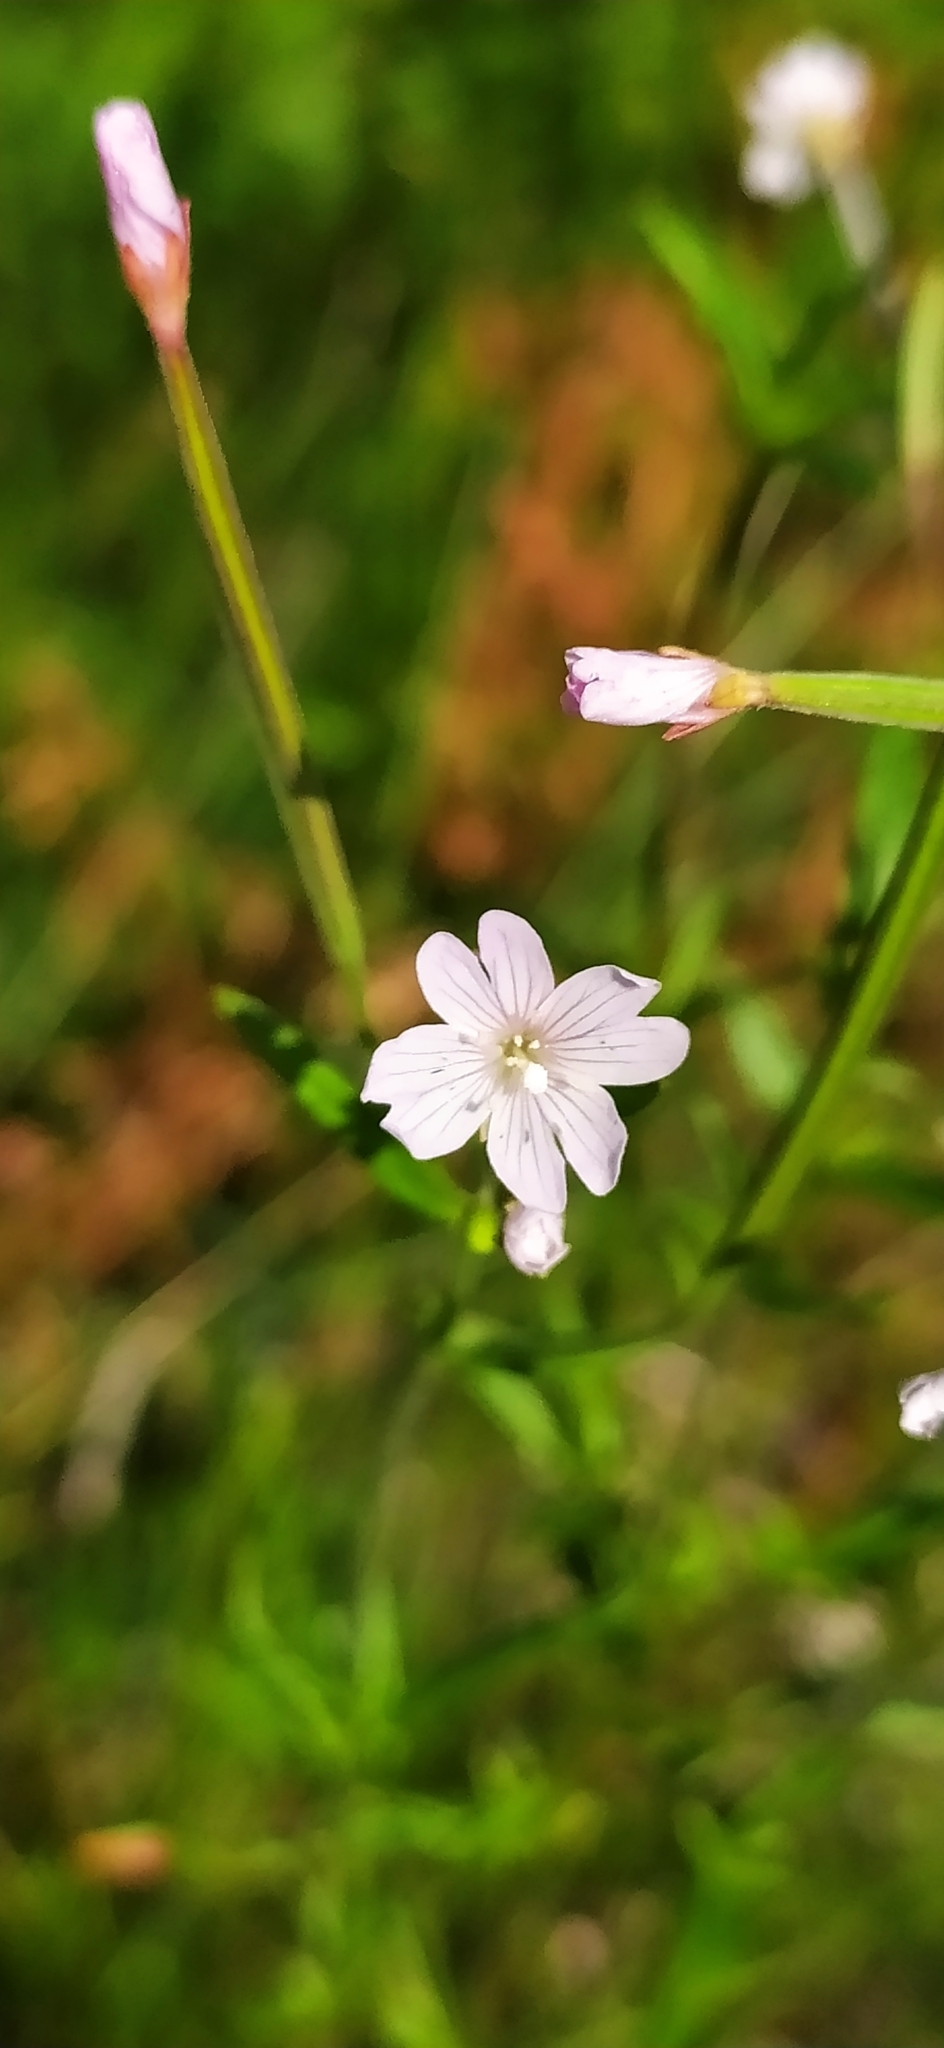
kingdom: Plantae
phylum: Tracheophyta
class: Magnoliopsida
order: Myrtales
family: Onagraceae
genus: Epilobium
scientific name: Epilobium palustre
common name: Marsh willowherb
